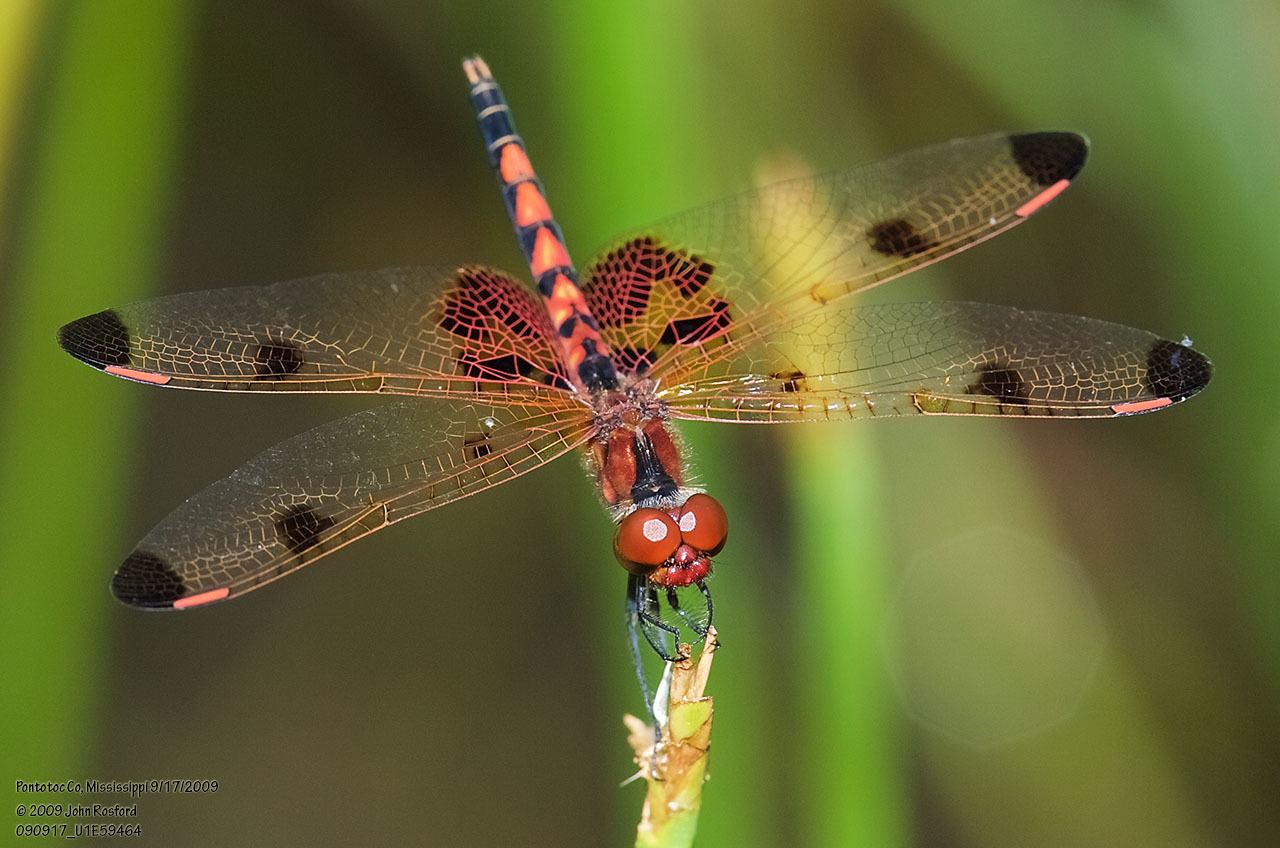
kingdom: Animalia
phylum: Arthropoda
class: Insecta
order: Odonata
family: Libellulidae
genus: Celithemis
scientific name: Celithemis elisa
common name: Calico pennant
